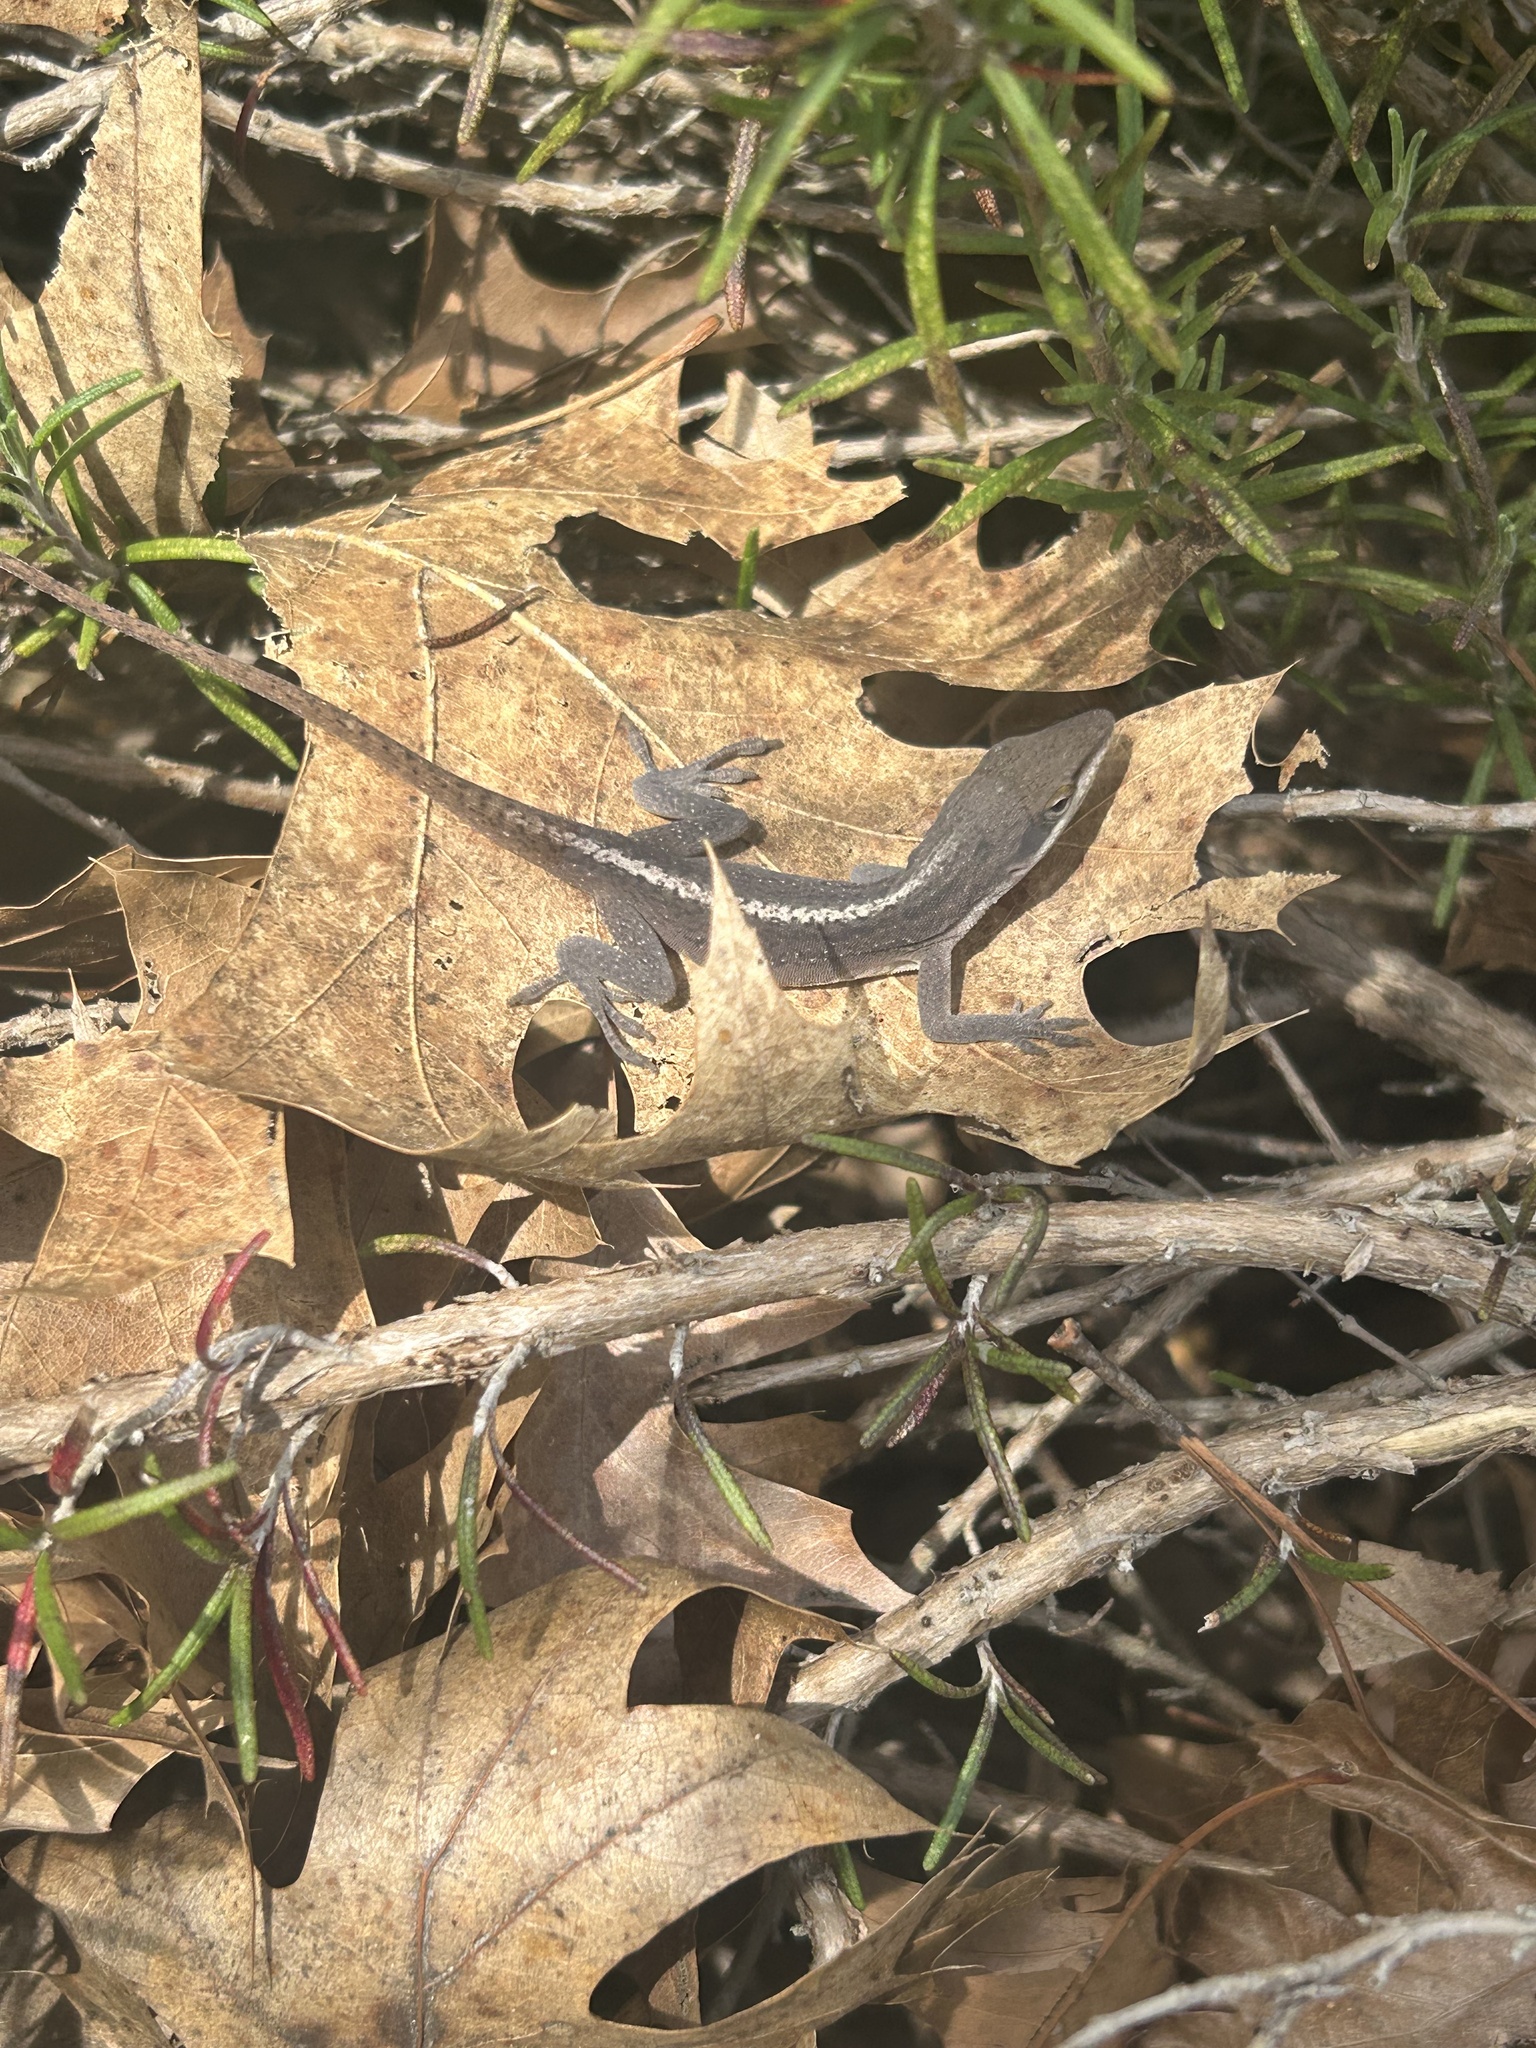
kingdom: Animalia
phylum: Chordata
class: Squamata
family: Dactyloidae
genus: Anolis
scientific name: Anolis carolinensis
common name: Green anole
